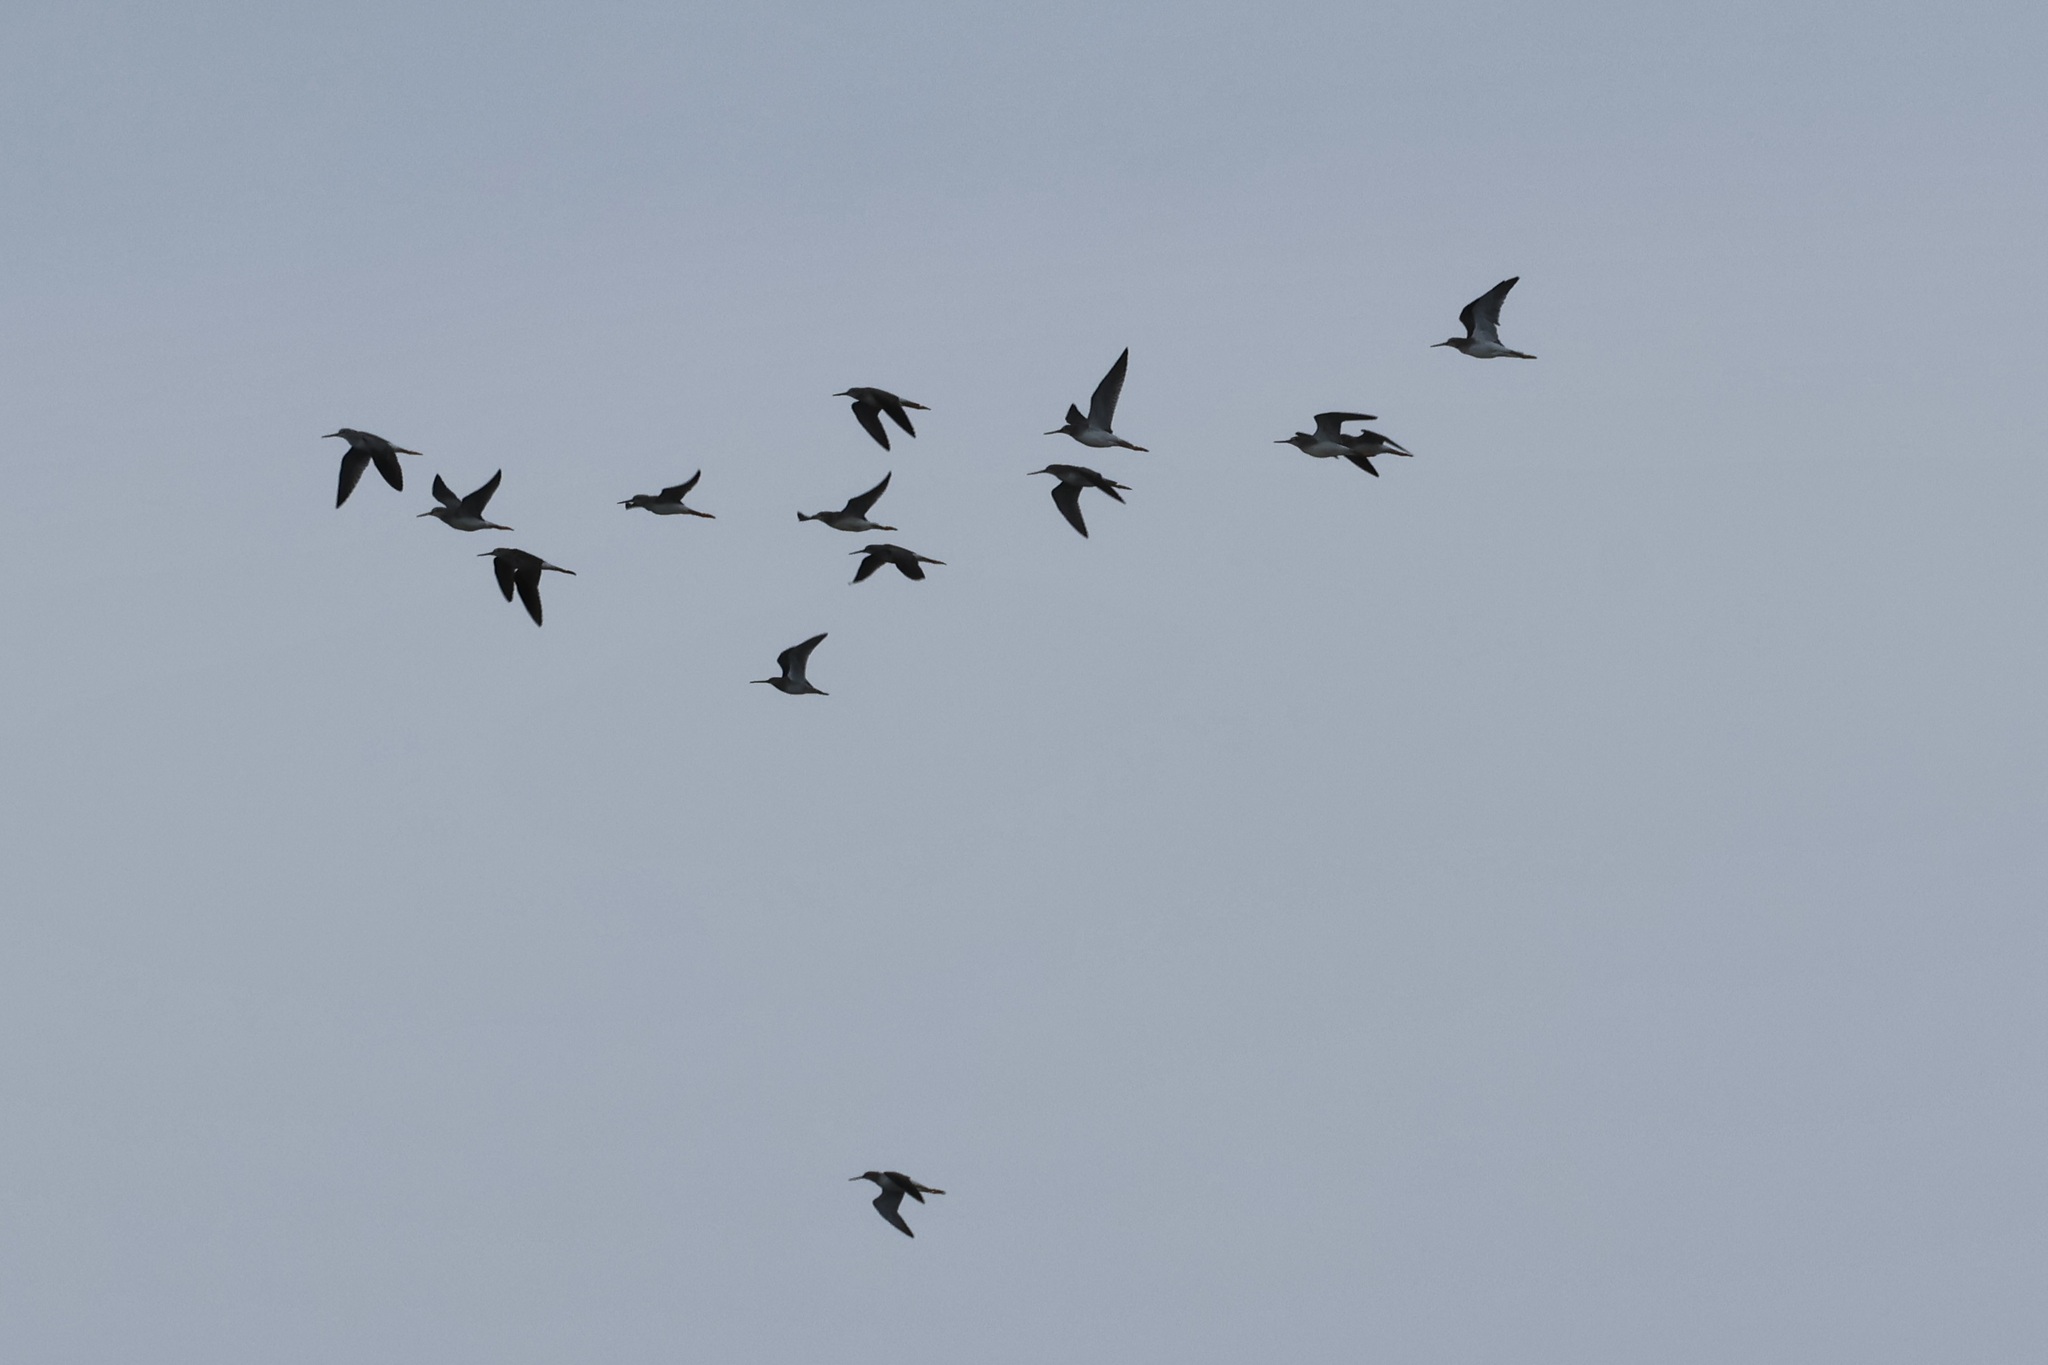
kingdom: Animalia
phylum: Chordata
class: Aves
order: Charadriiformes
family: Scolopacidae
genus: Tringa
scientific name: Tringa melanoleuca
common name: Greater yellowlegs
